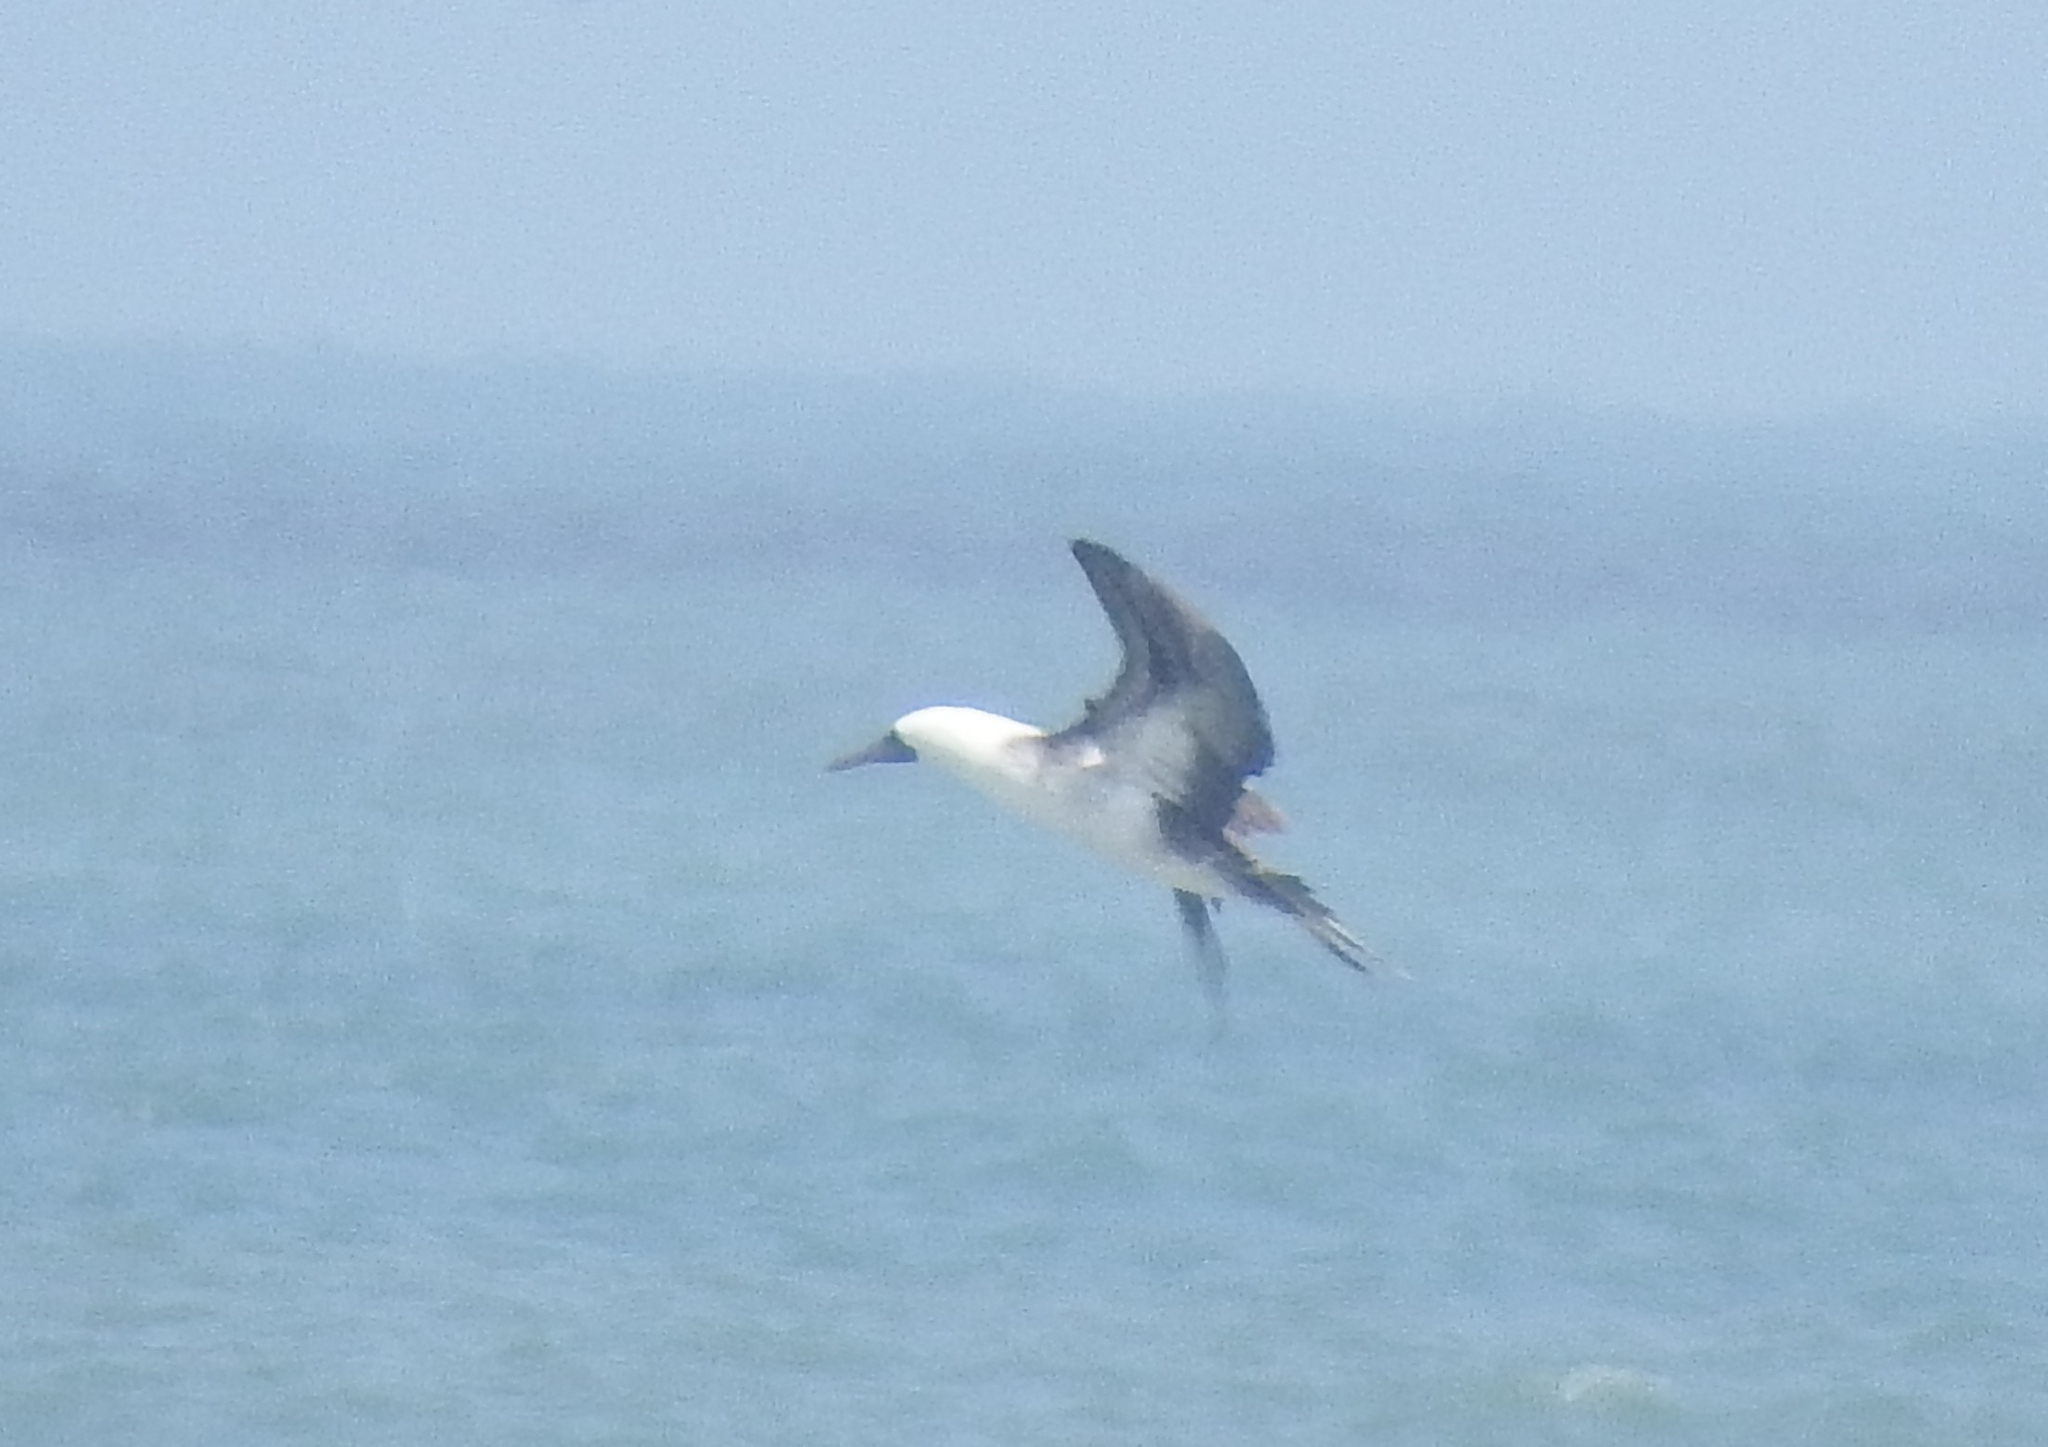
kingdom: Animalia
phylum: Chordata
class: Aves
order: Suliformes
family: Sulidae
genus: Sula
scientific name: Sula variegata
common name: Peruvian booby
